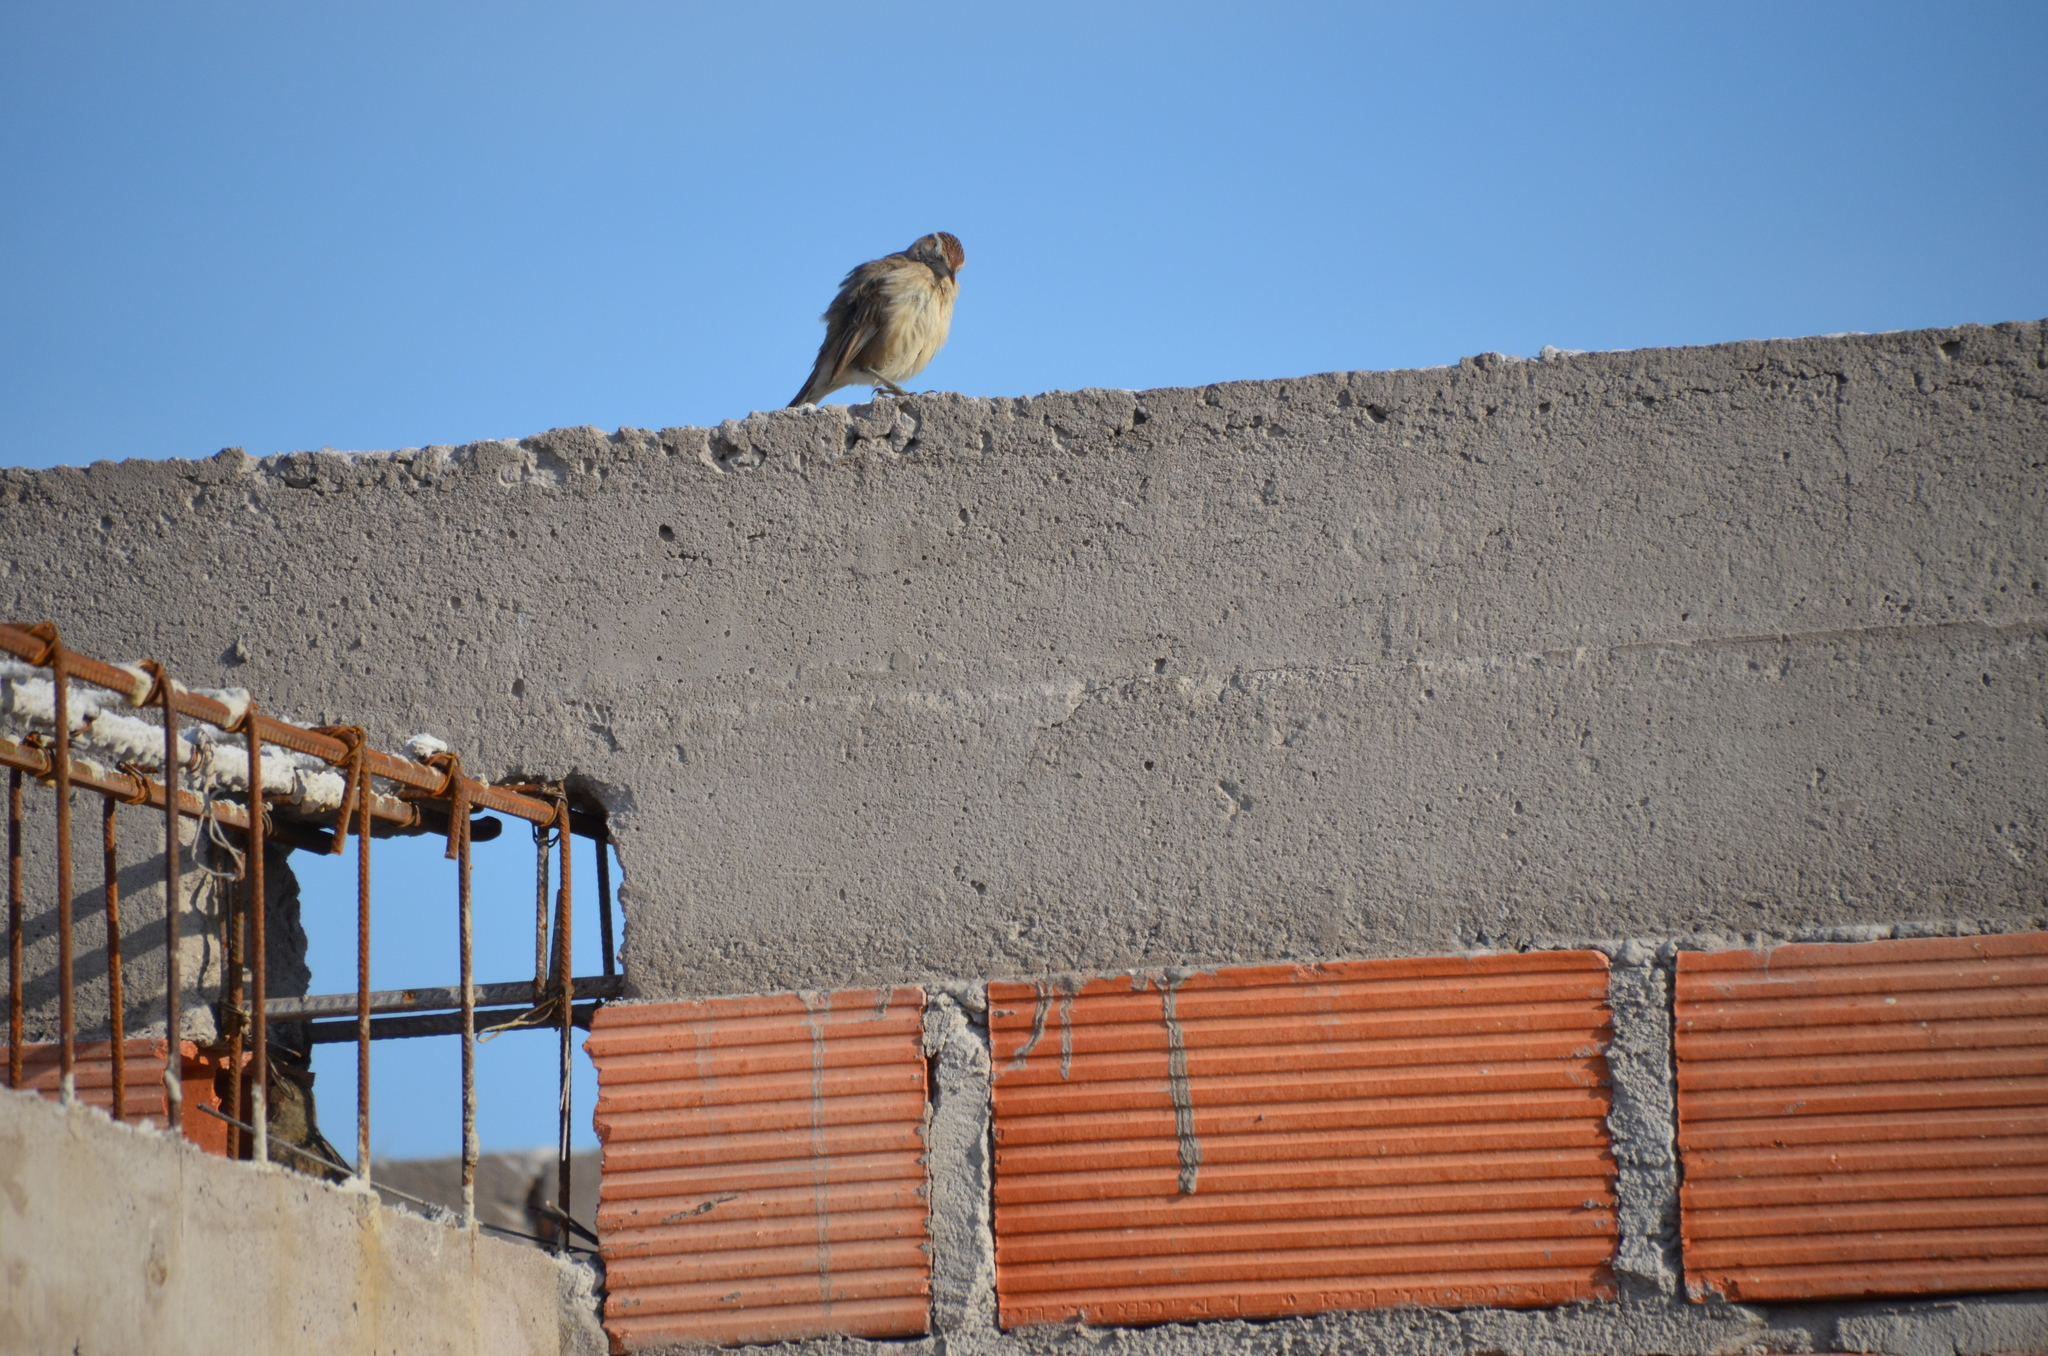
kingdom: Animalia
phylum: Chordata
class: Aves
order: Passeriformes
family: Furnariidae
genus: Anumbius
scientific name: Anumbius annumbi
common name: Firewood-gatherer
